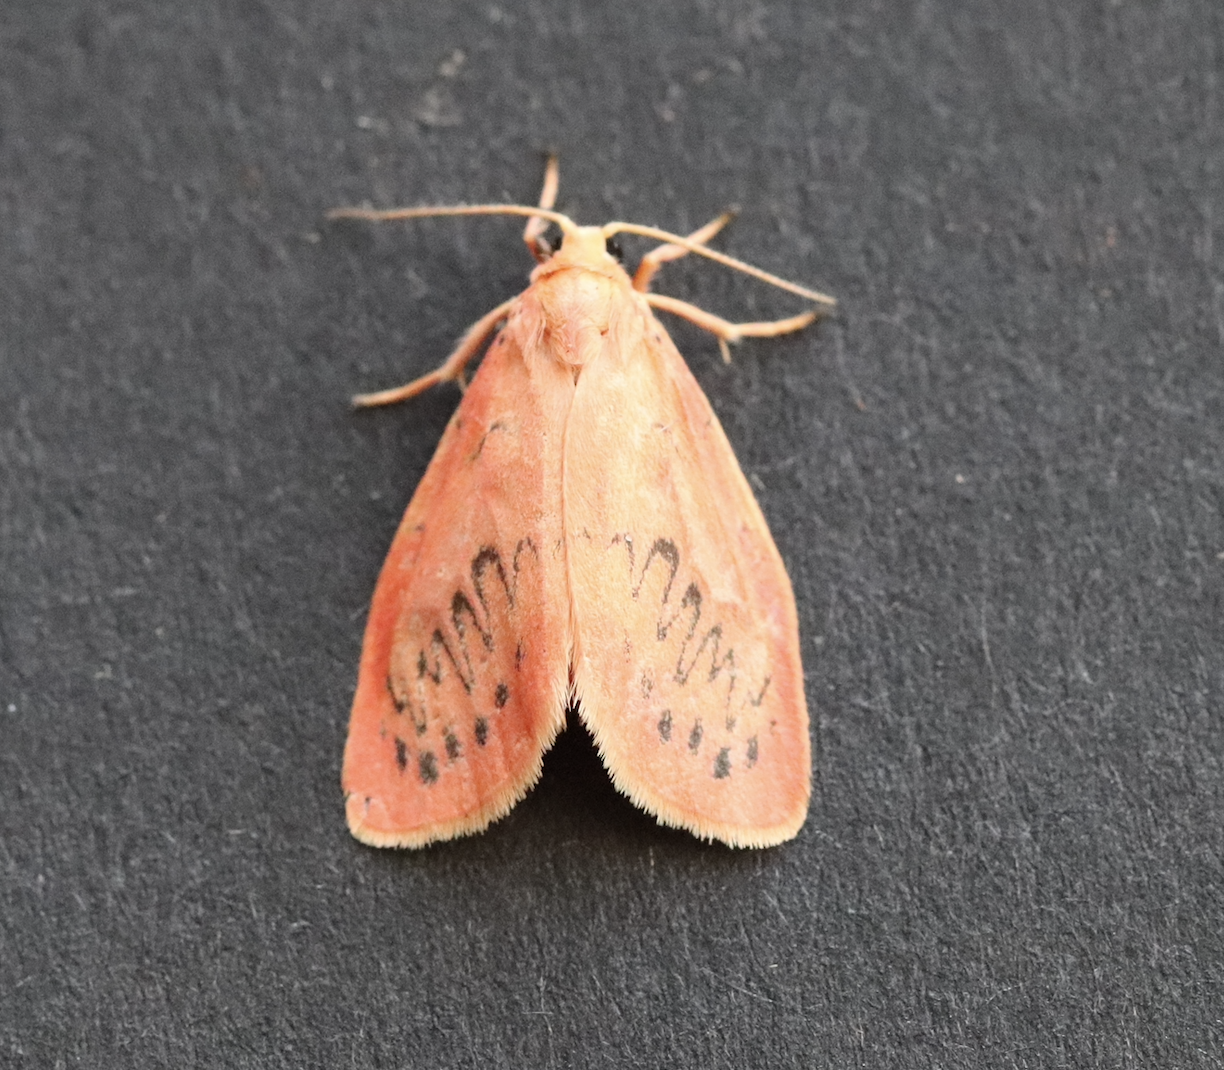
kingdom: Animalia
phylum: Arthropoda
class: Insecta
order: Lepidoptera
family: Erebidae
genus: Miltochrista
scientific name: Miltochrista miniata
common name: Rosy footman
